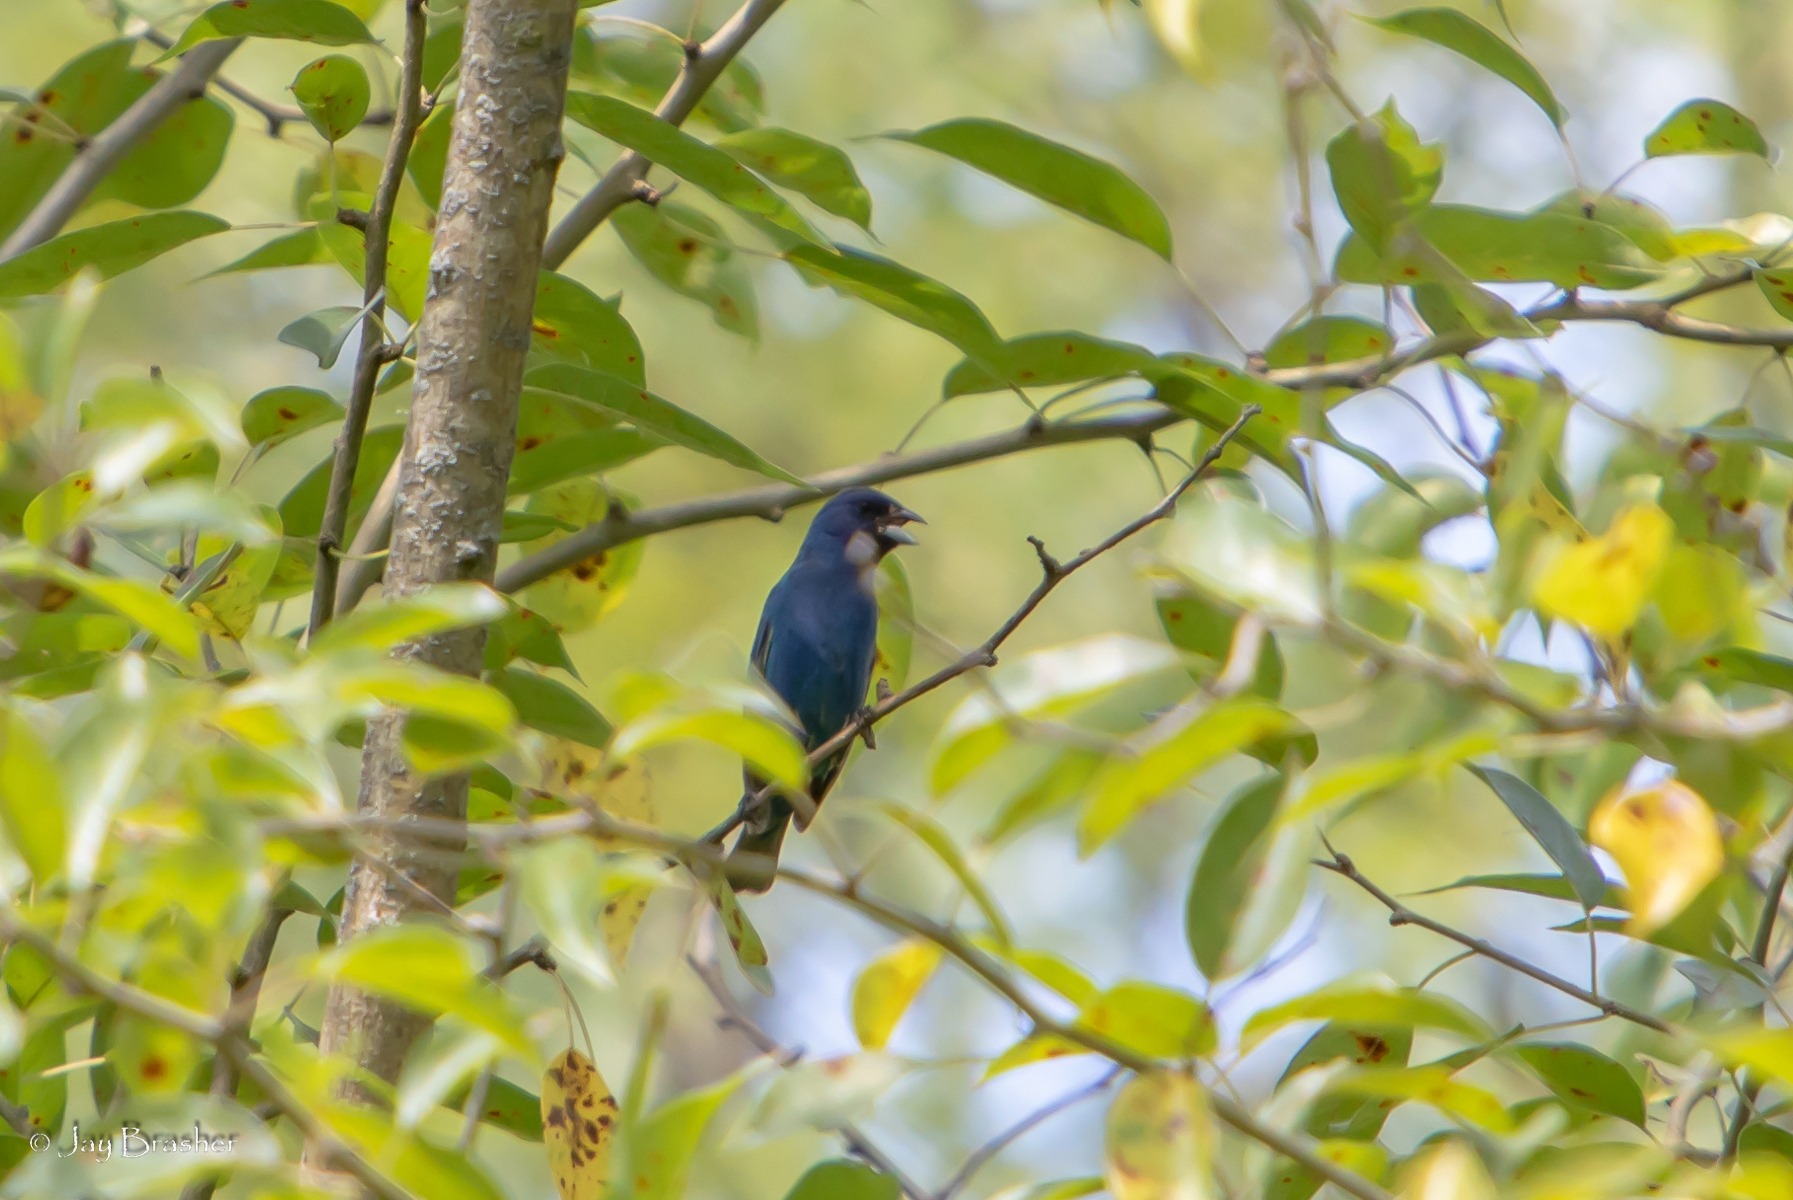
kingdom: Animalia
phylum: Chordata
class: Aves
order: Passeriformes
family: Cardinalidae
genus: Passerina
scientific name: Passerina cyanea
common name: Indigo bunting
